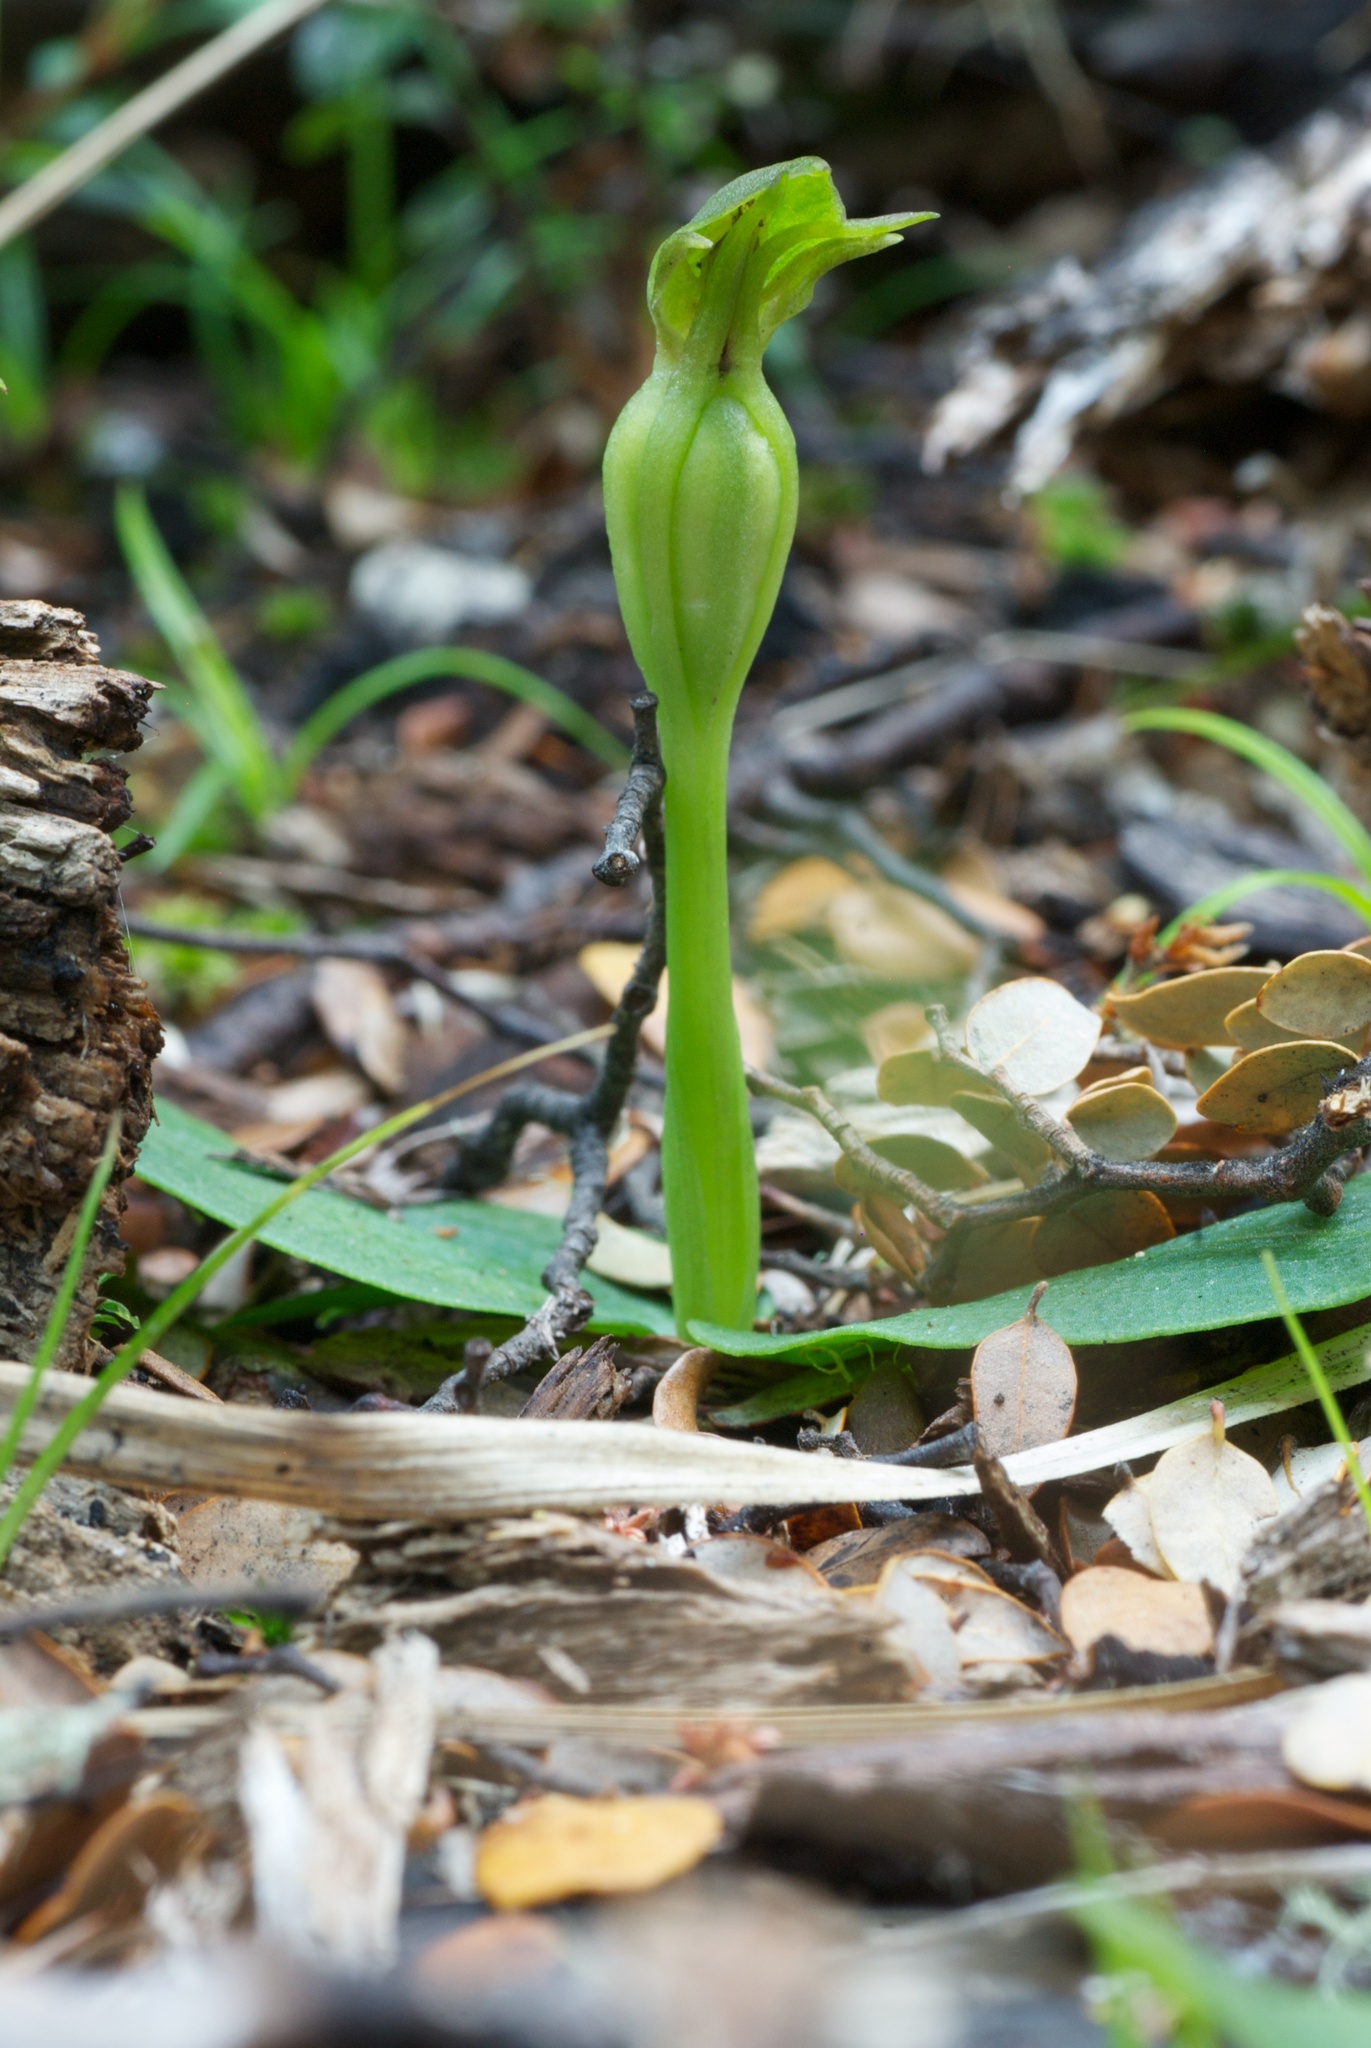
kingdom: Plantae
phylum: Tracheophyta
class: Liliopsida
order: Asparagales
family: Orchidaceae
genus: Chiloglottis
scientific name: Chiloglottis cornuta
